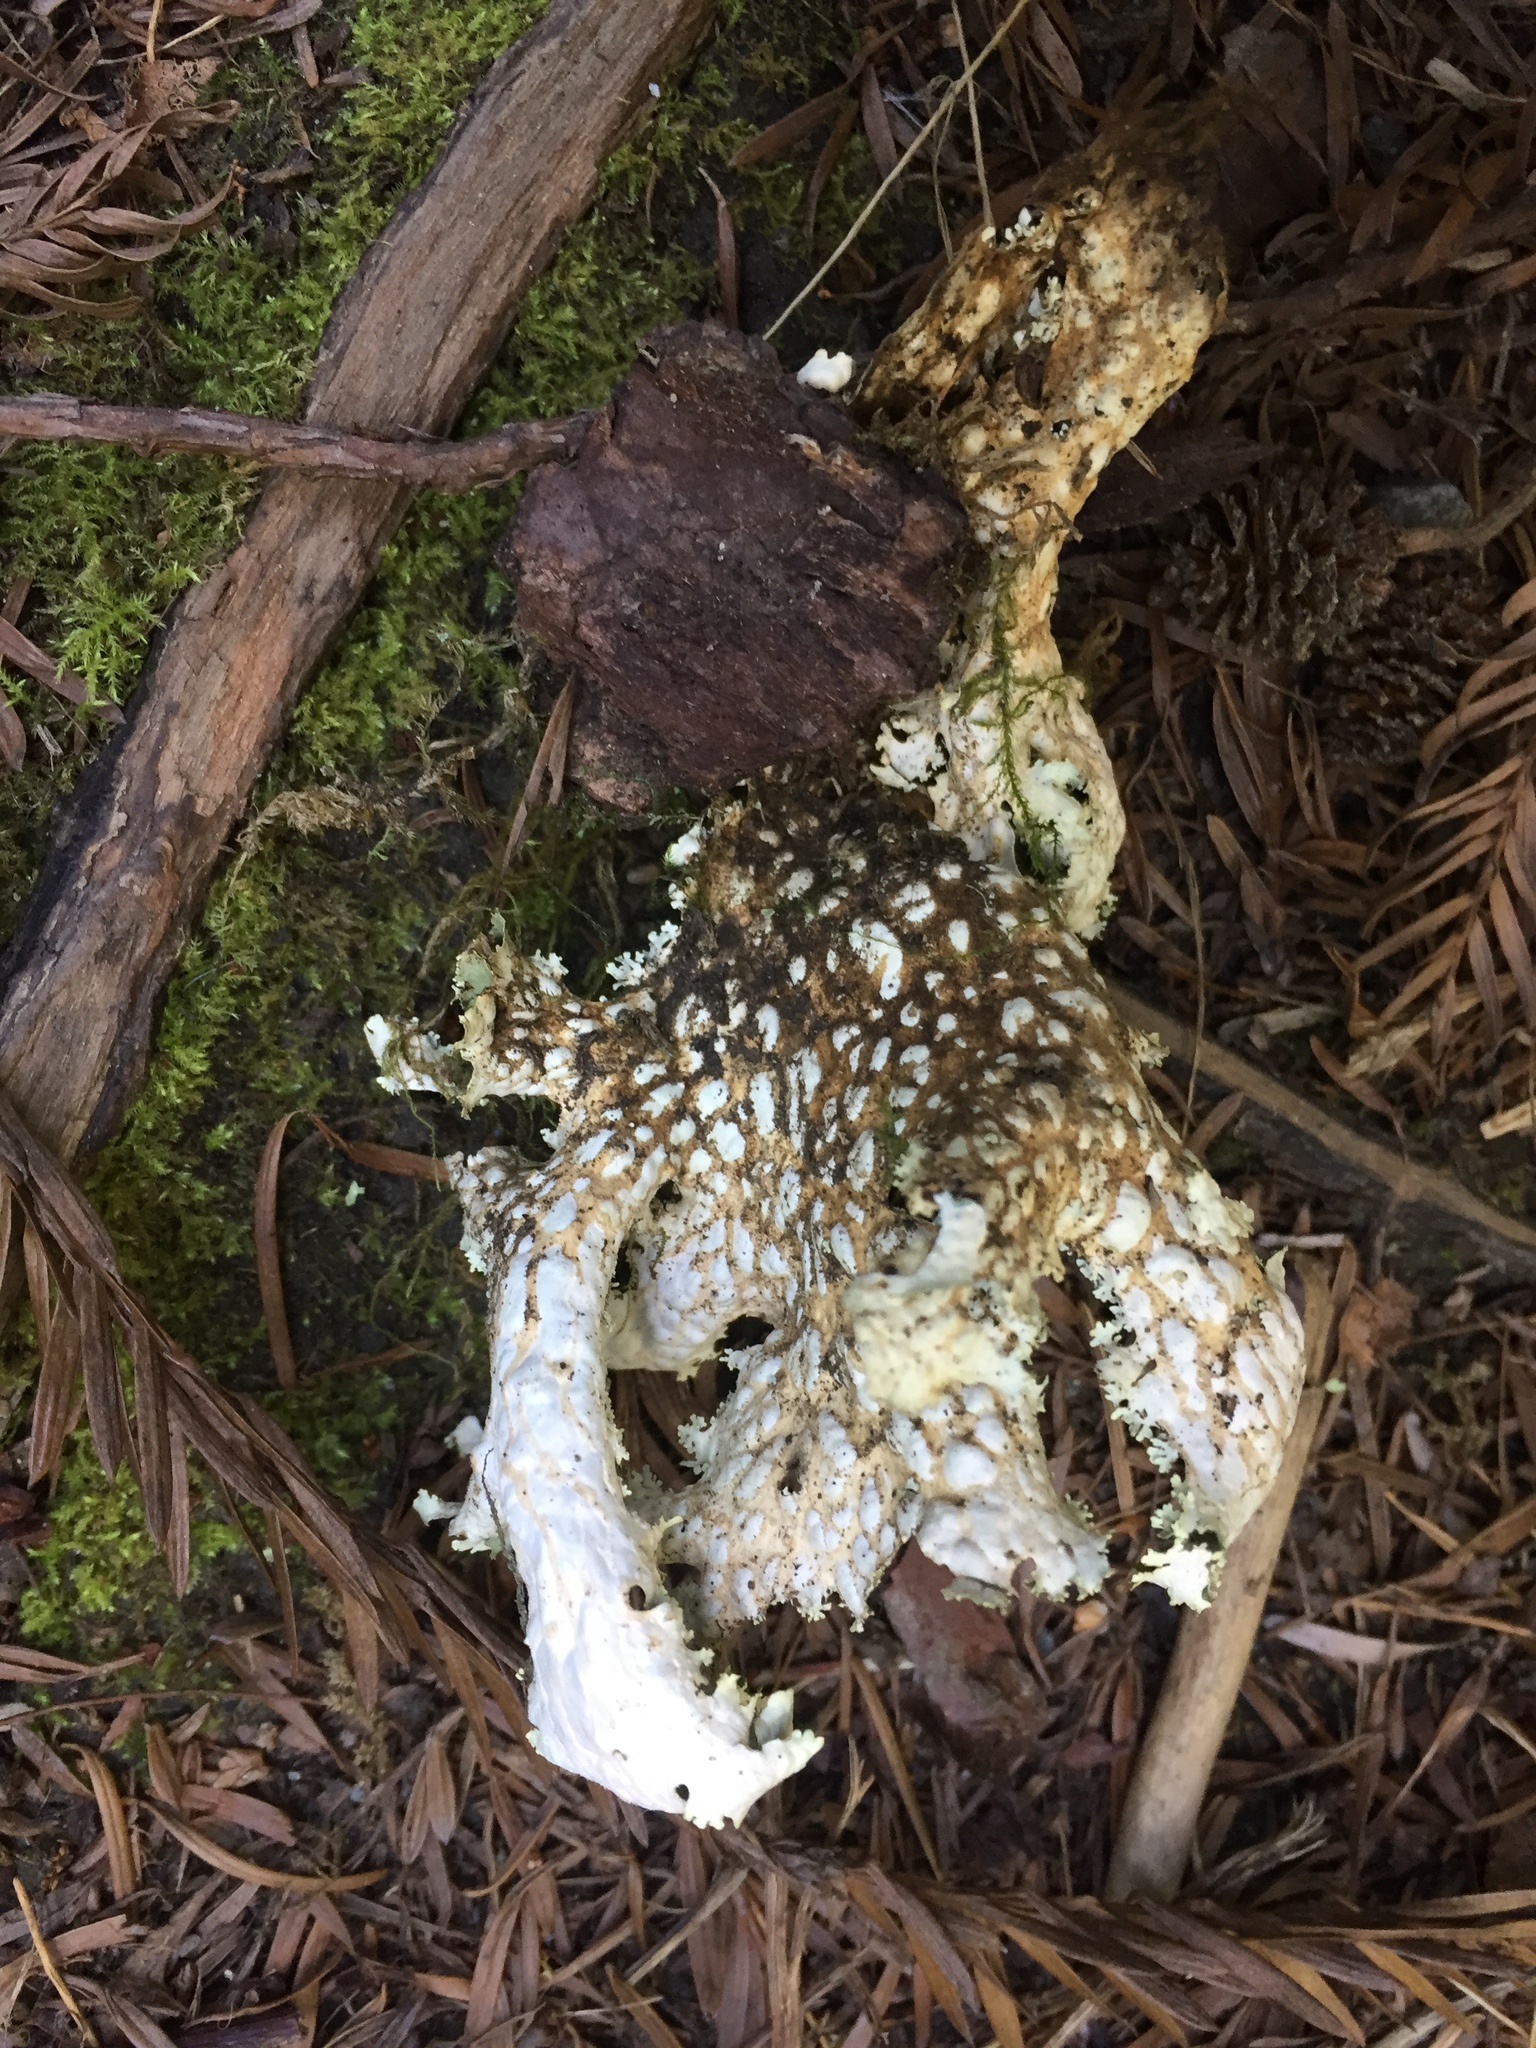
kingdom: Fungi
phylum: Ascomycota
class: Lecanoromycetes
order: Peltigerales
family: Lobariaceae
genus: Lobaria
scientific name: Lobaria pulmonaria
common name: Lungwort
